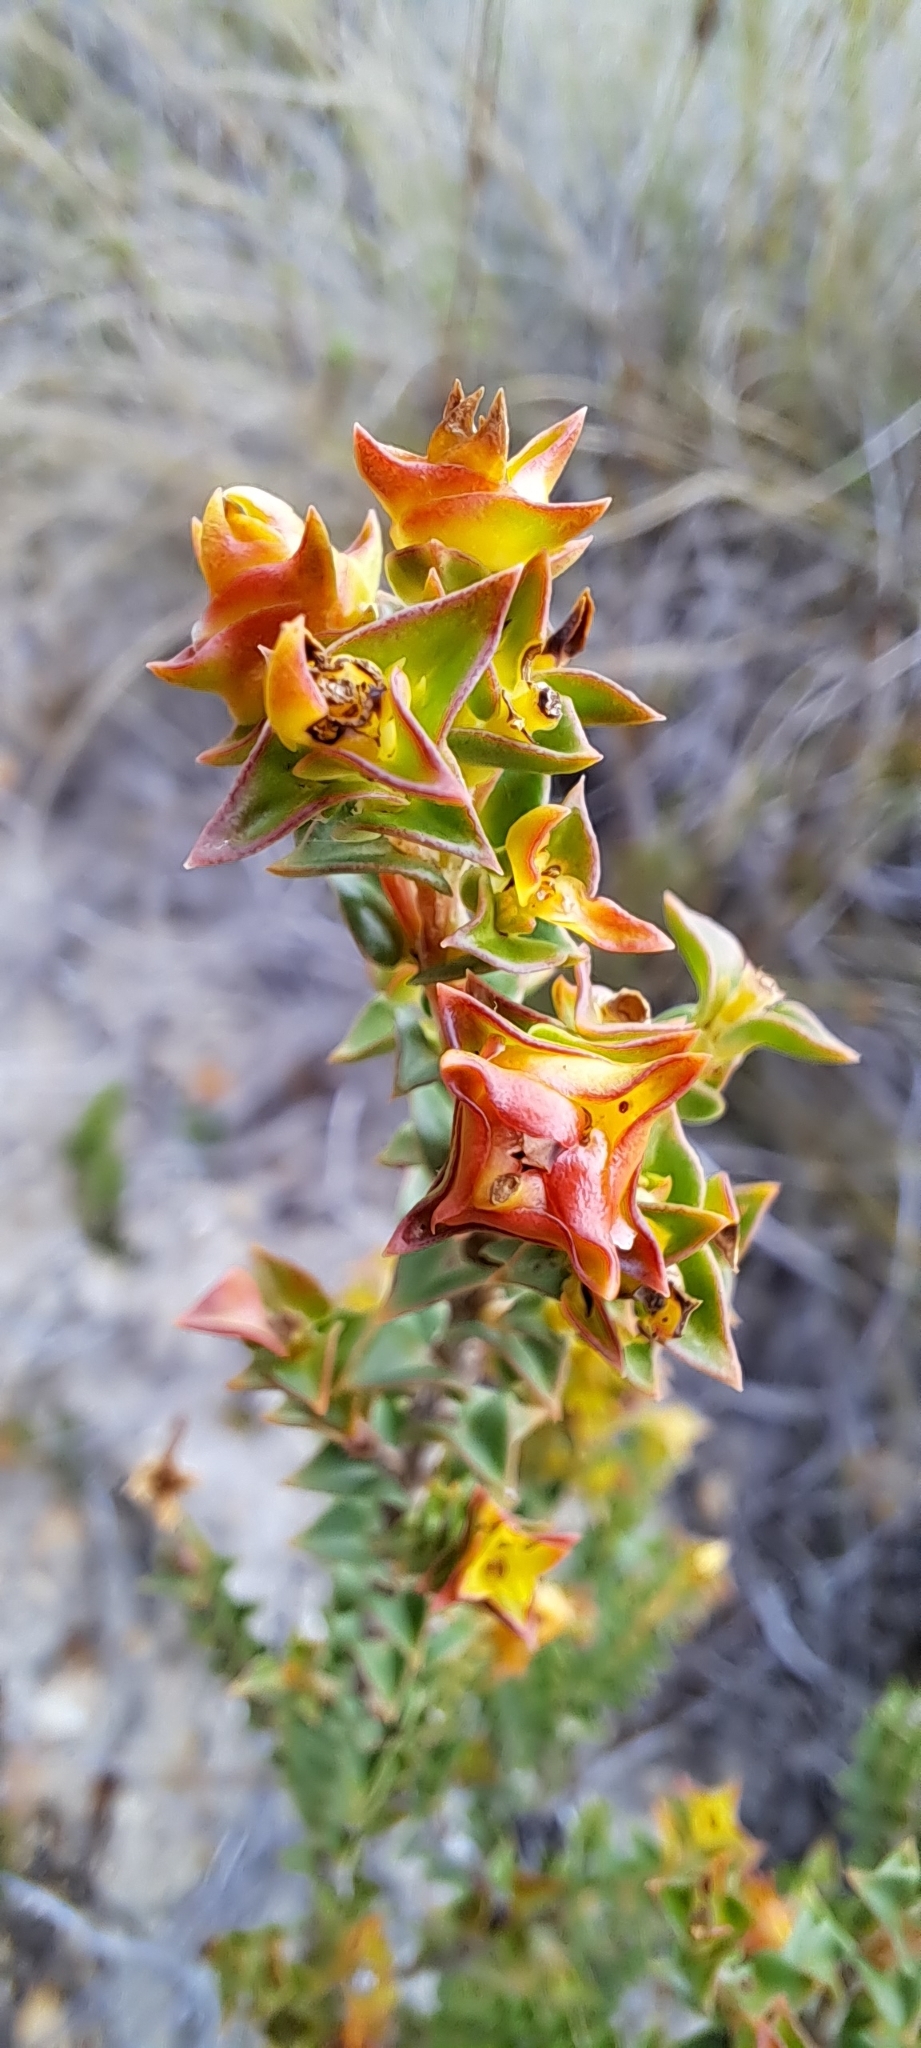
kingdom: Plantae
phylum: Tracheophyta
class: Magnoliopsida
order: Myrtales
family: Penaeaceae
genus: Penaea
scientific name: Penaea mucronata
